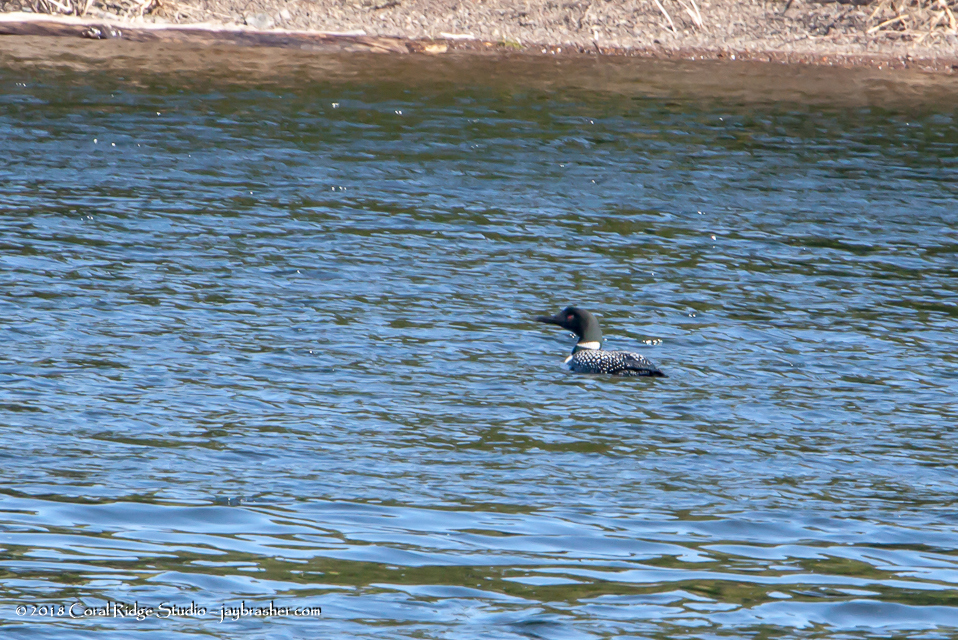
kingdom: Animalia
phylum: Chordata
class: Aves
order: Gaviiformes
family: Gaviidae
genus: Gavia
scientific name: Gavia immer
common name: Common loon
